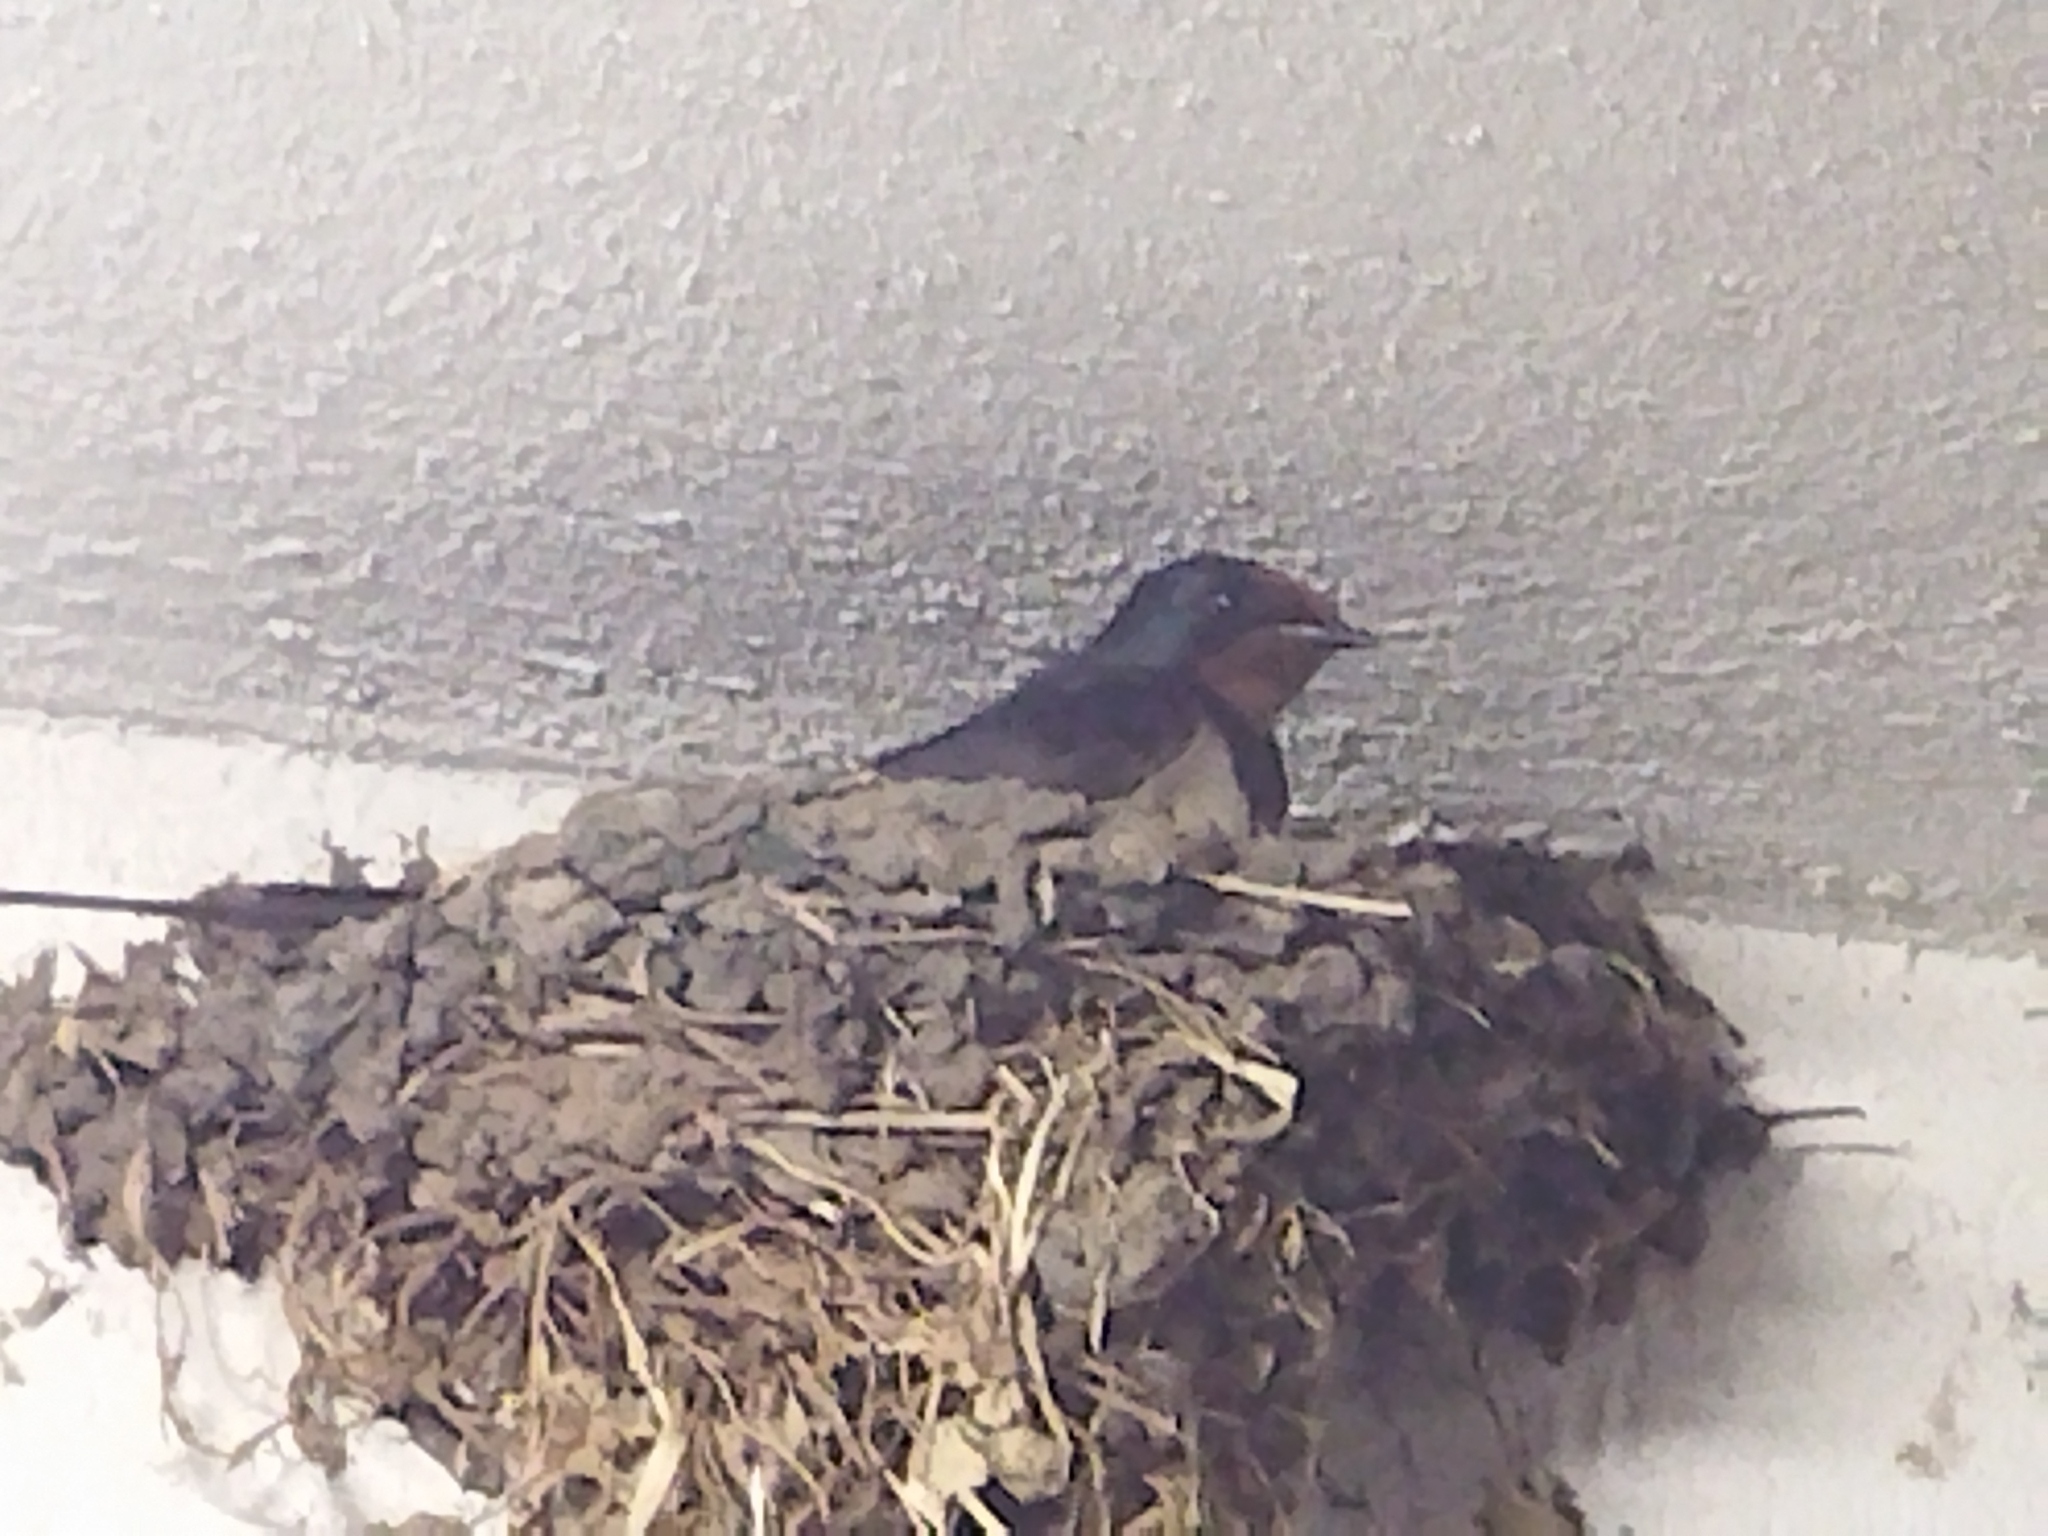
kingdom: Animalia
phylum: Chordata
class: Aves
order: Passeriformes
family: Hirundinidae
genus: Hirundo
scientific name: Hirundo rustica
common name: Barn swallow
